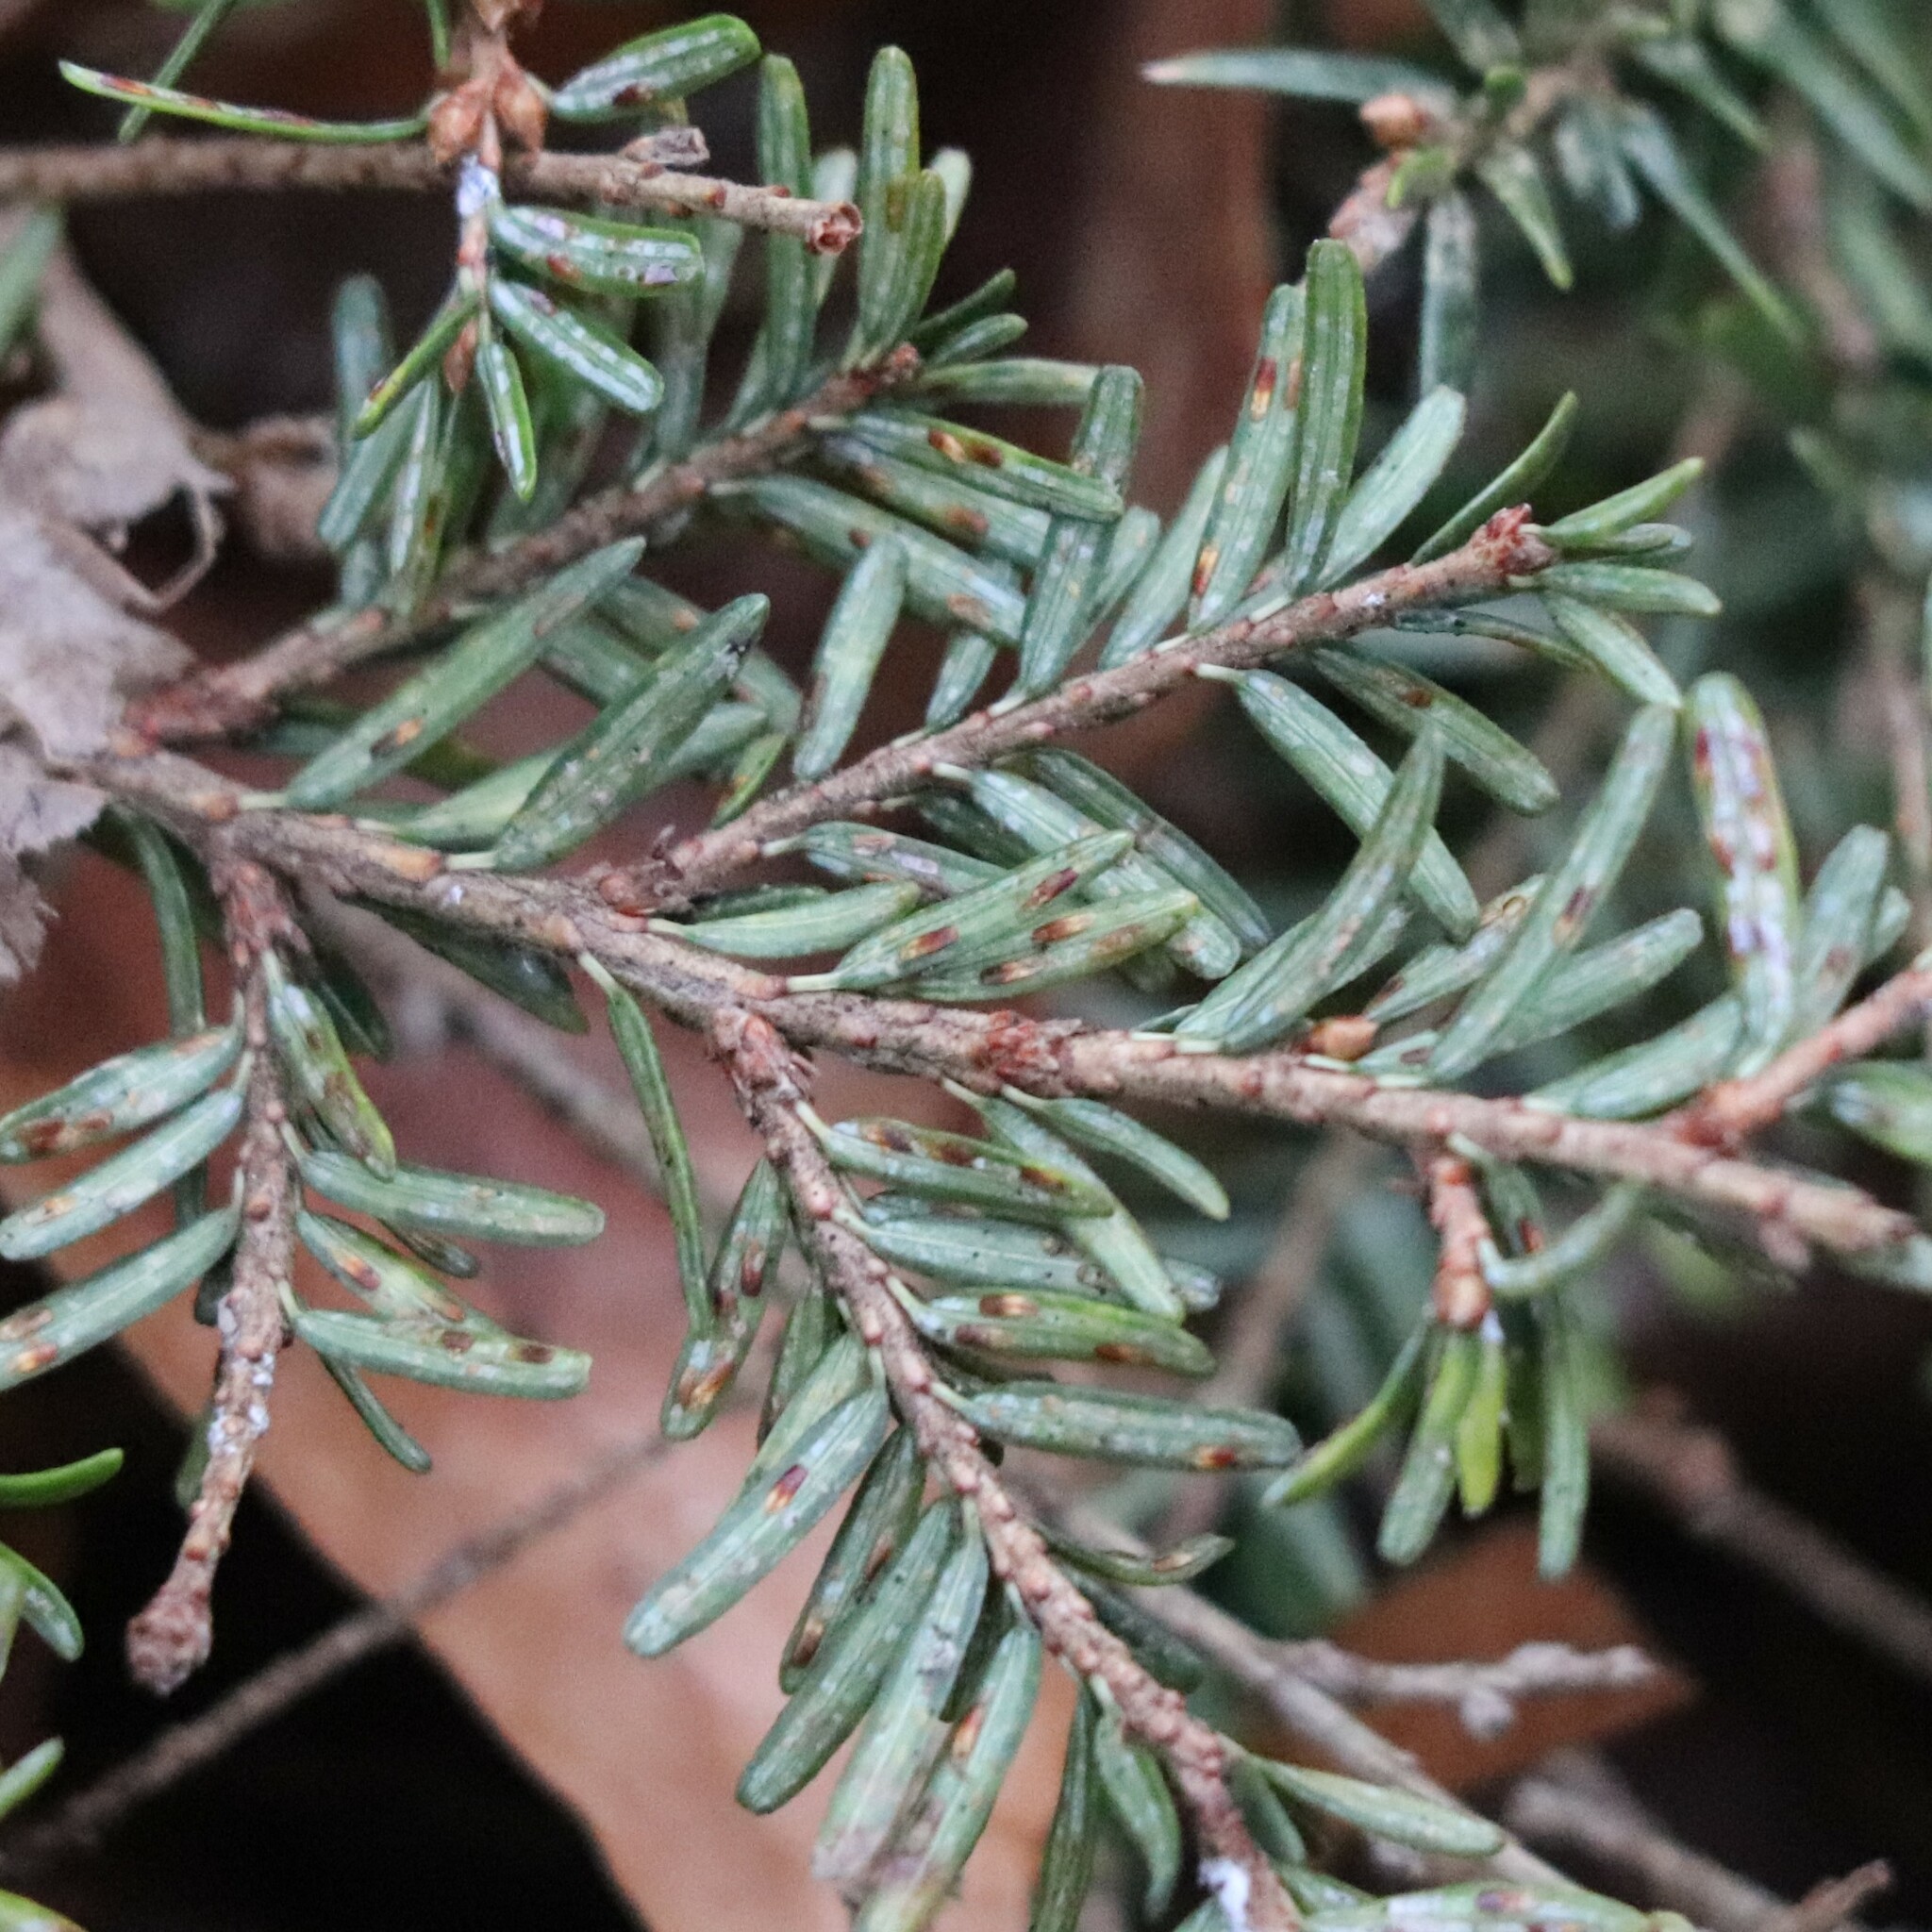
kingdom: Animalia
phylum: Arthropoda
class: Insecta
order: Hemiptera
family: Diaspididae
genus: Fiorinia
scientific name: Fiorinia externa
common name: Elongate hemlock scale
